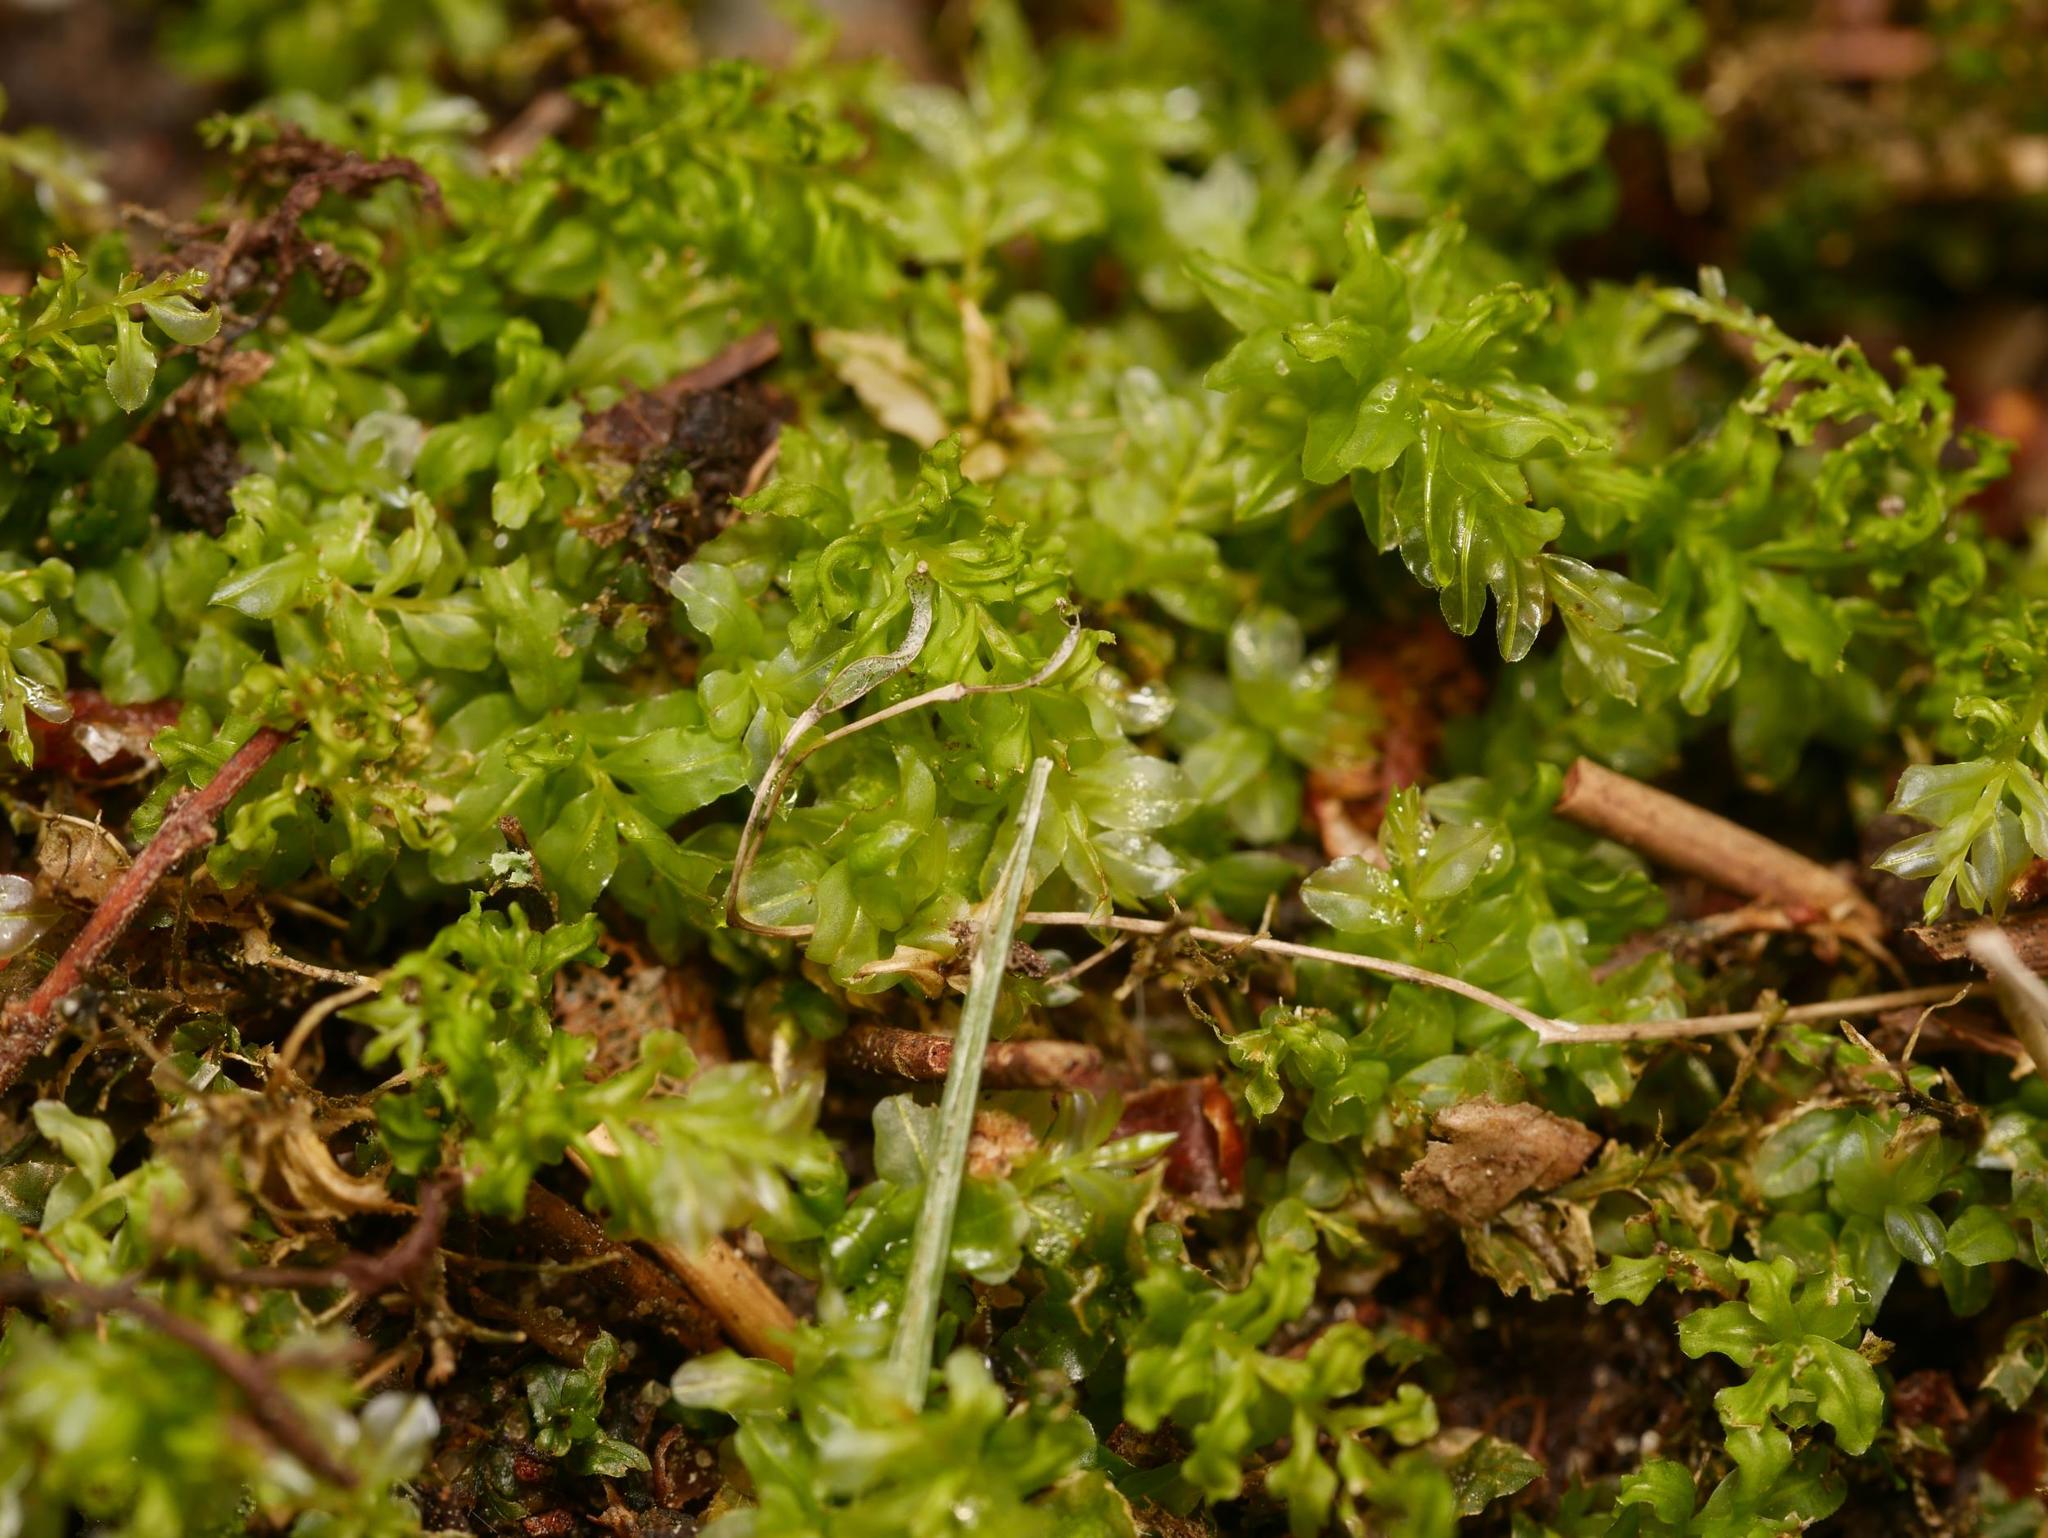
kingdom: Plantae
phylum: Bryophyta
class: Bryopsida
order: Bryales
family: Mniaceae
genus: Plagiomnium
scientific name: Plagiomnium undulatum
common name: Hart's-tongue thyme-moss
